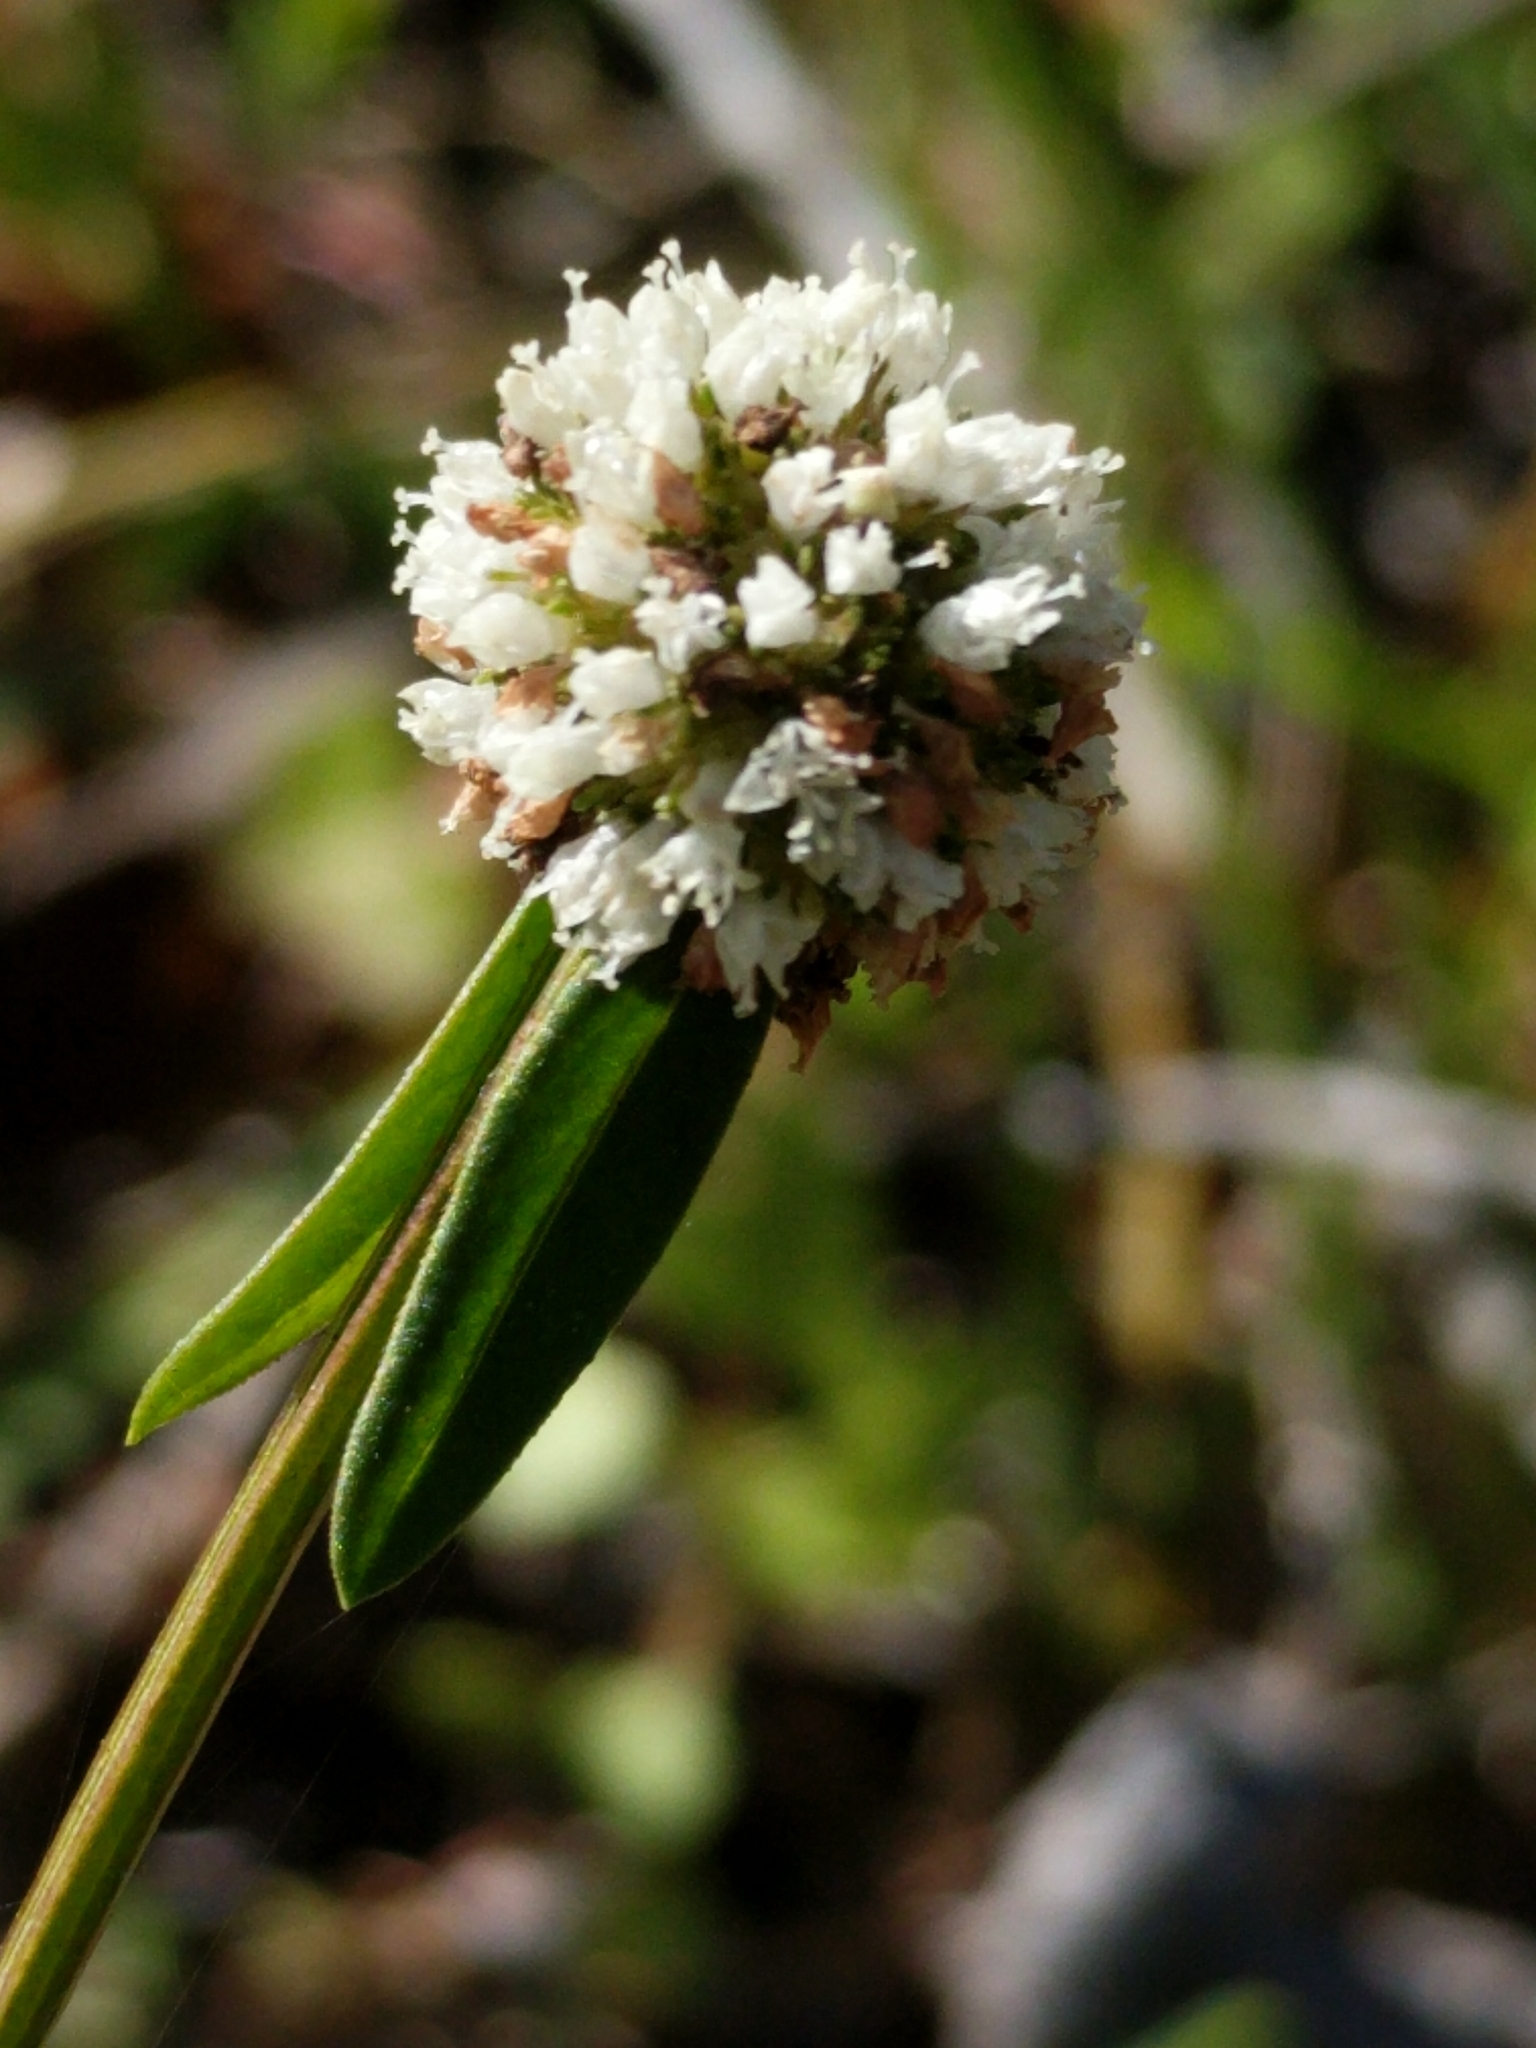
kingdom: Plantae
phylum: Tracheophyta
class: Magnoliopsida
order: Gentianales
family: Rubiaceae
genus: Spermacoce
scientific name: Spermacoce verticillata
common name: Shrubby false buttonweed
